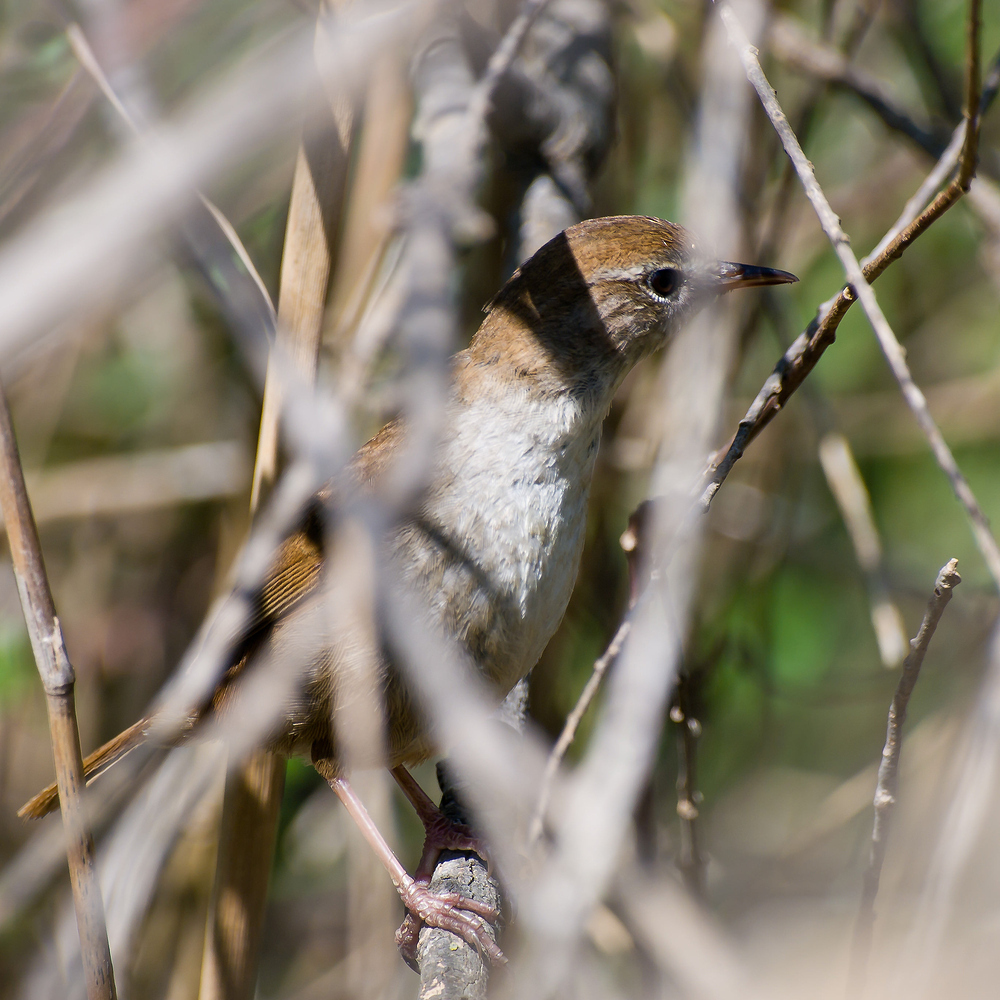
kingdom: Animalia
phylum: Chordata
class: Aves
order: Passeriformes
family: Cettiidae
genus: Cettia
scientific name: Cettia cetti
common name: Cetti's warbler
